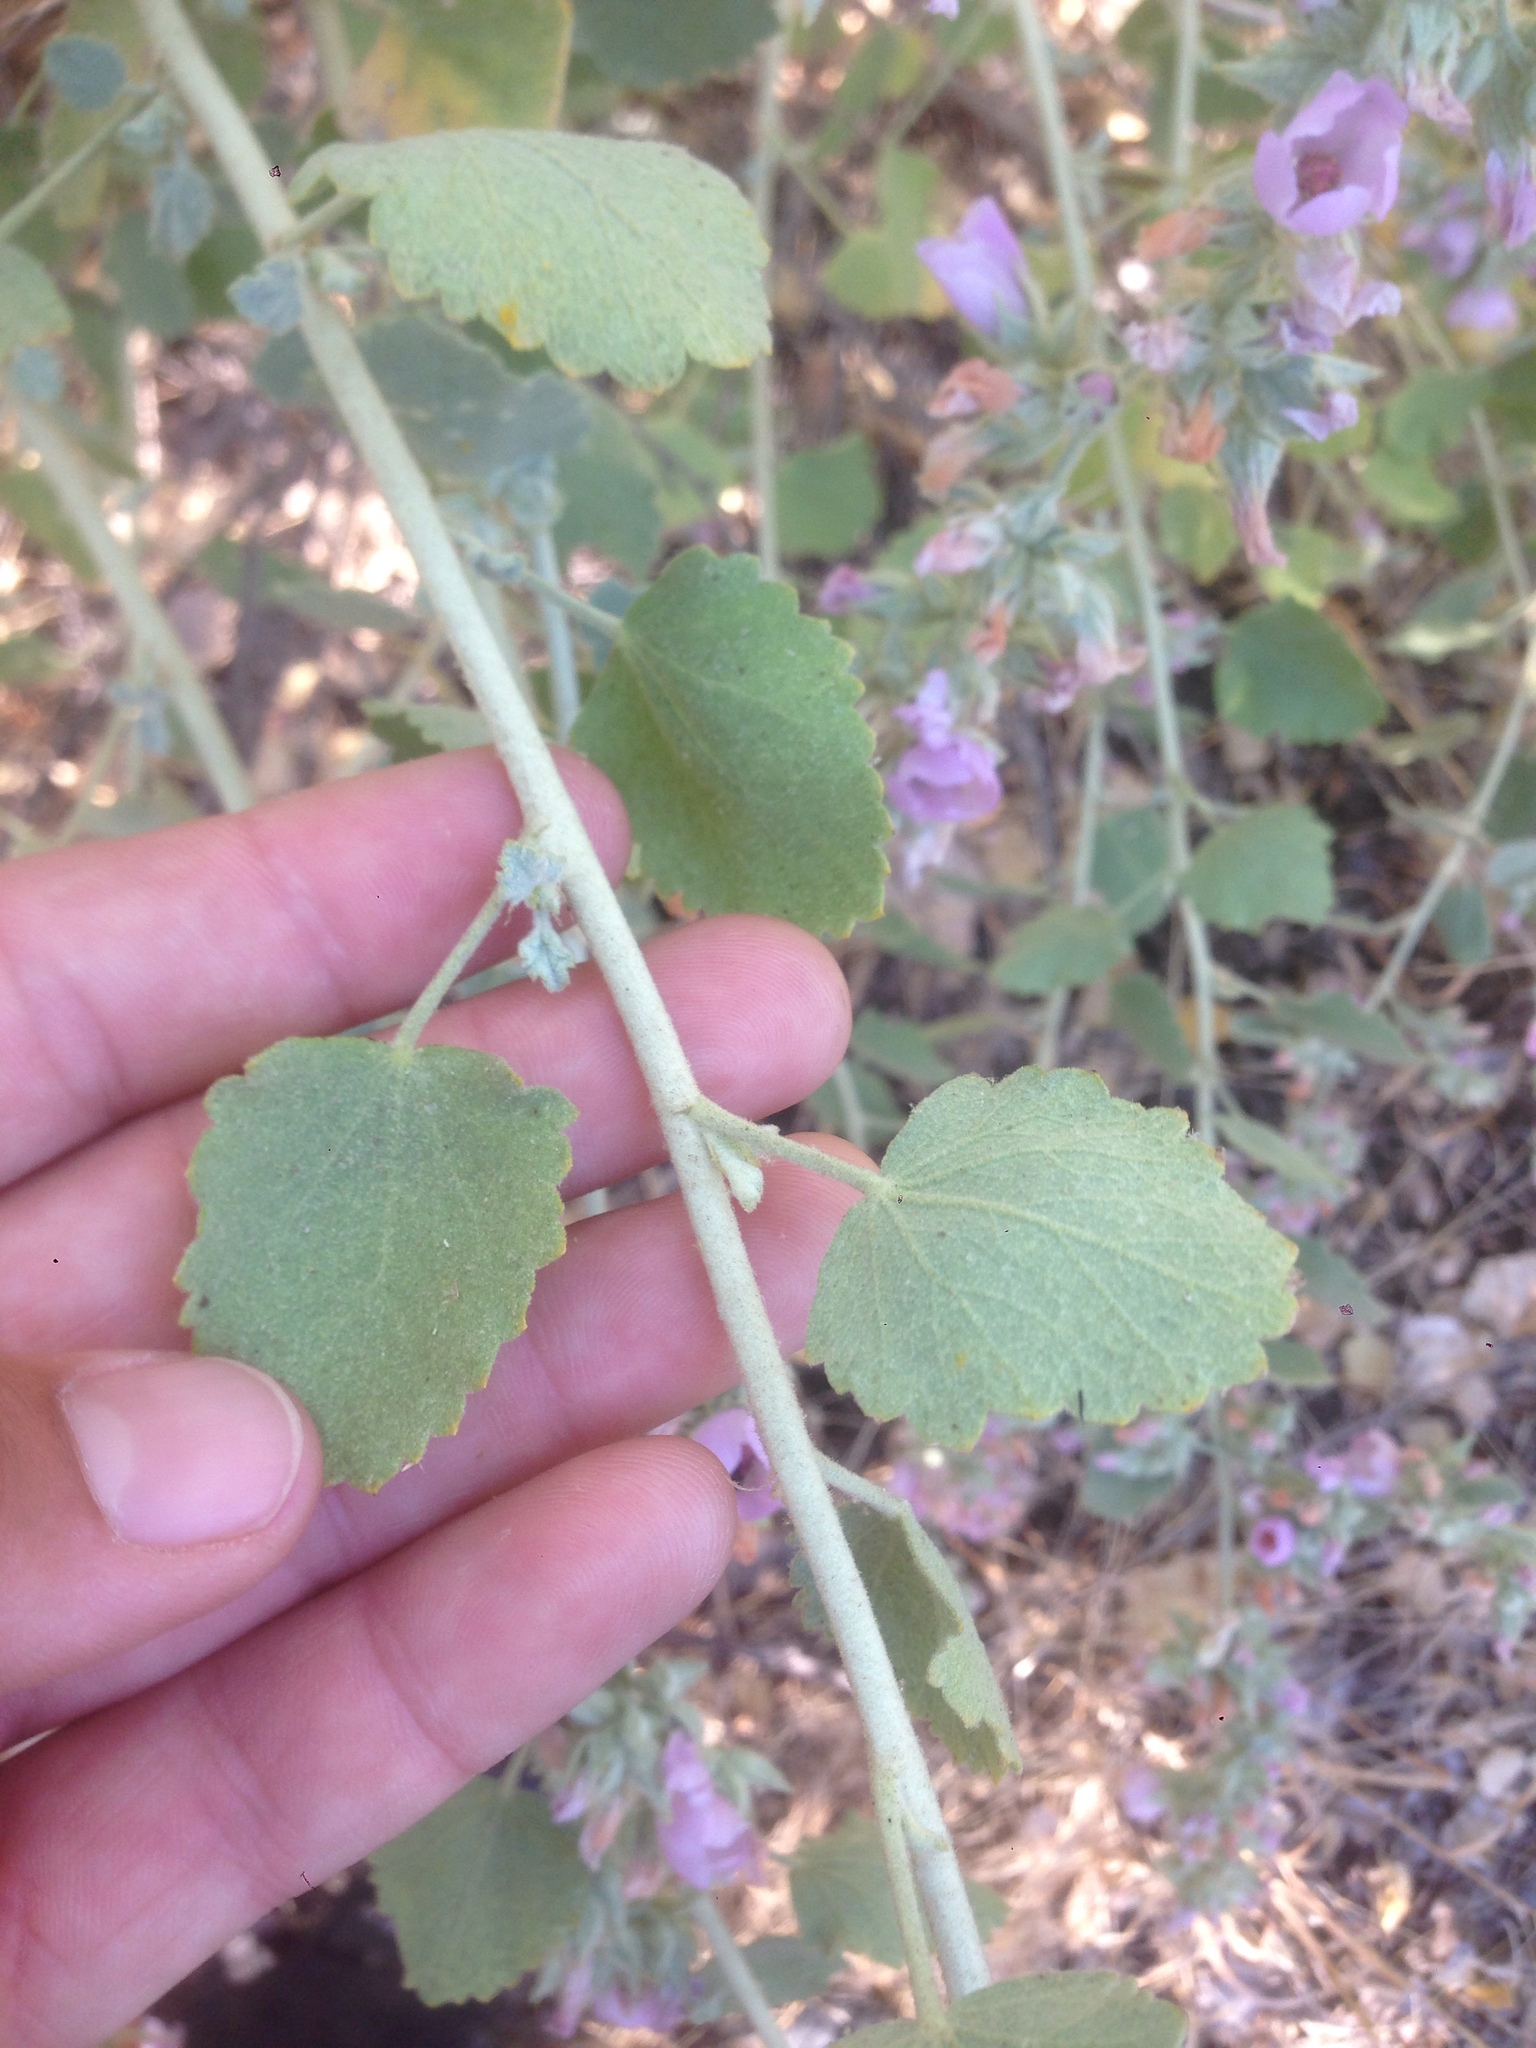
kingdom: Plantae
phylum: Tracheophyta
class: Magnoliopsida
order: Malvales
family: Malvaceae
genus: Malacothamnus
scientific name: Malacothamnus marrubioides
